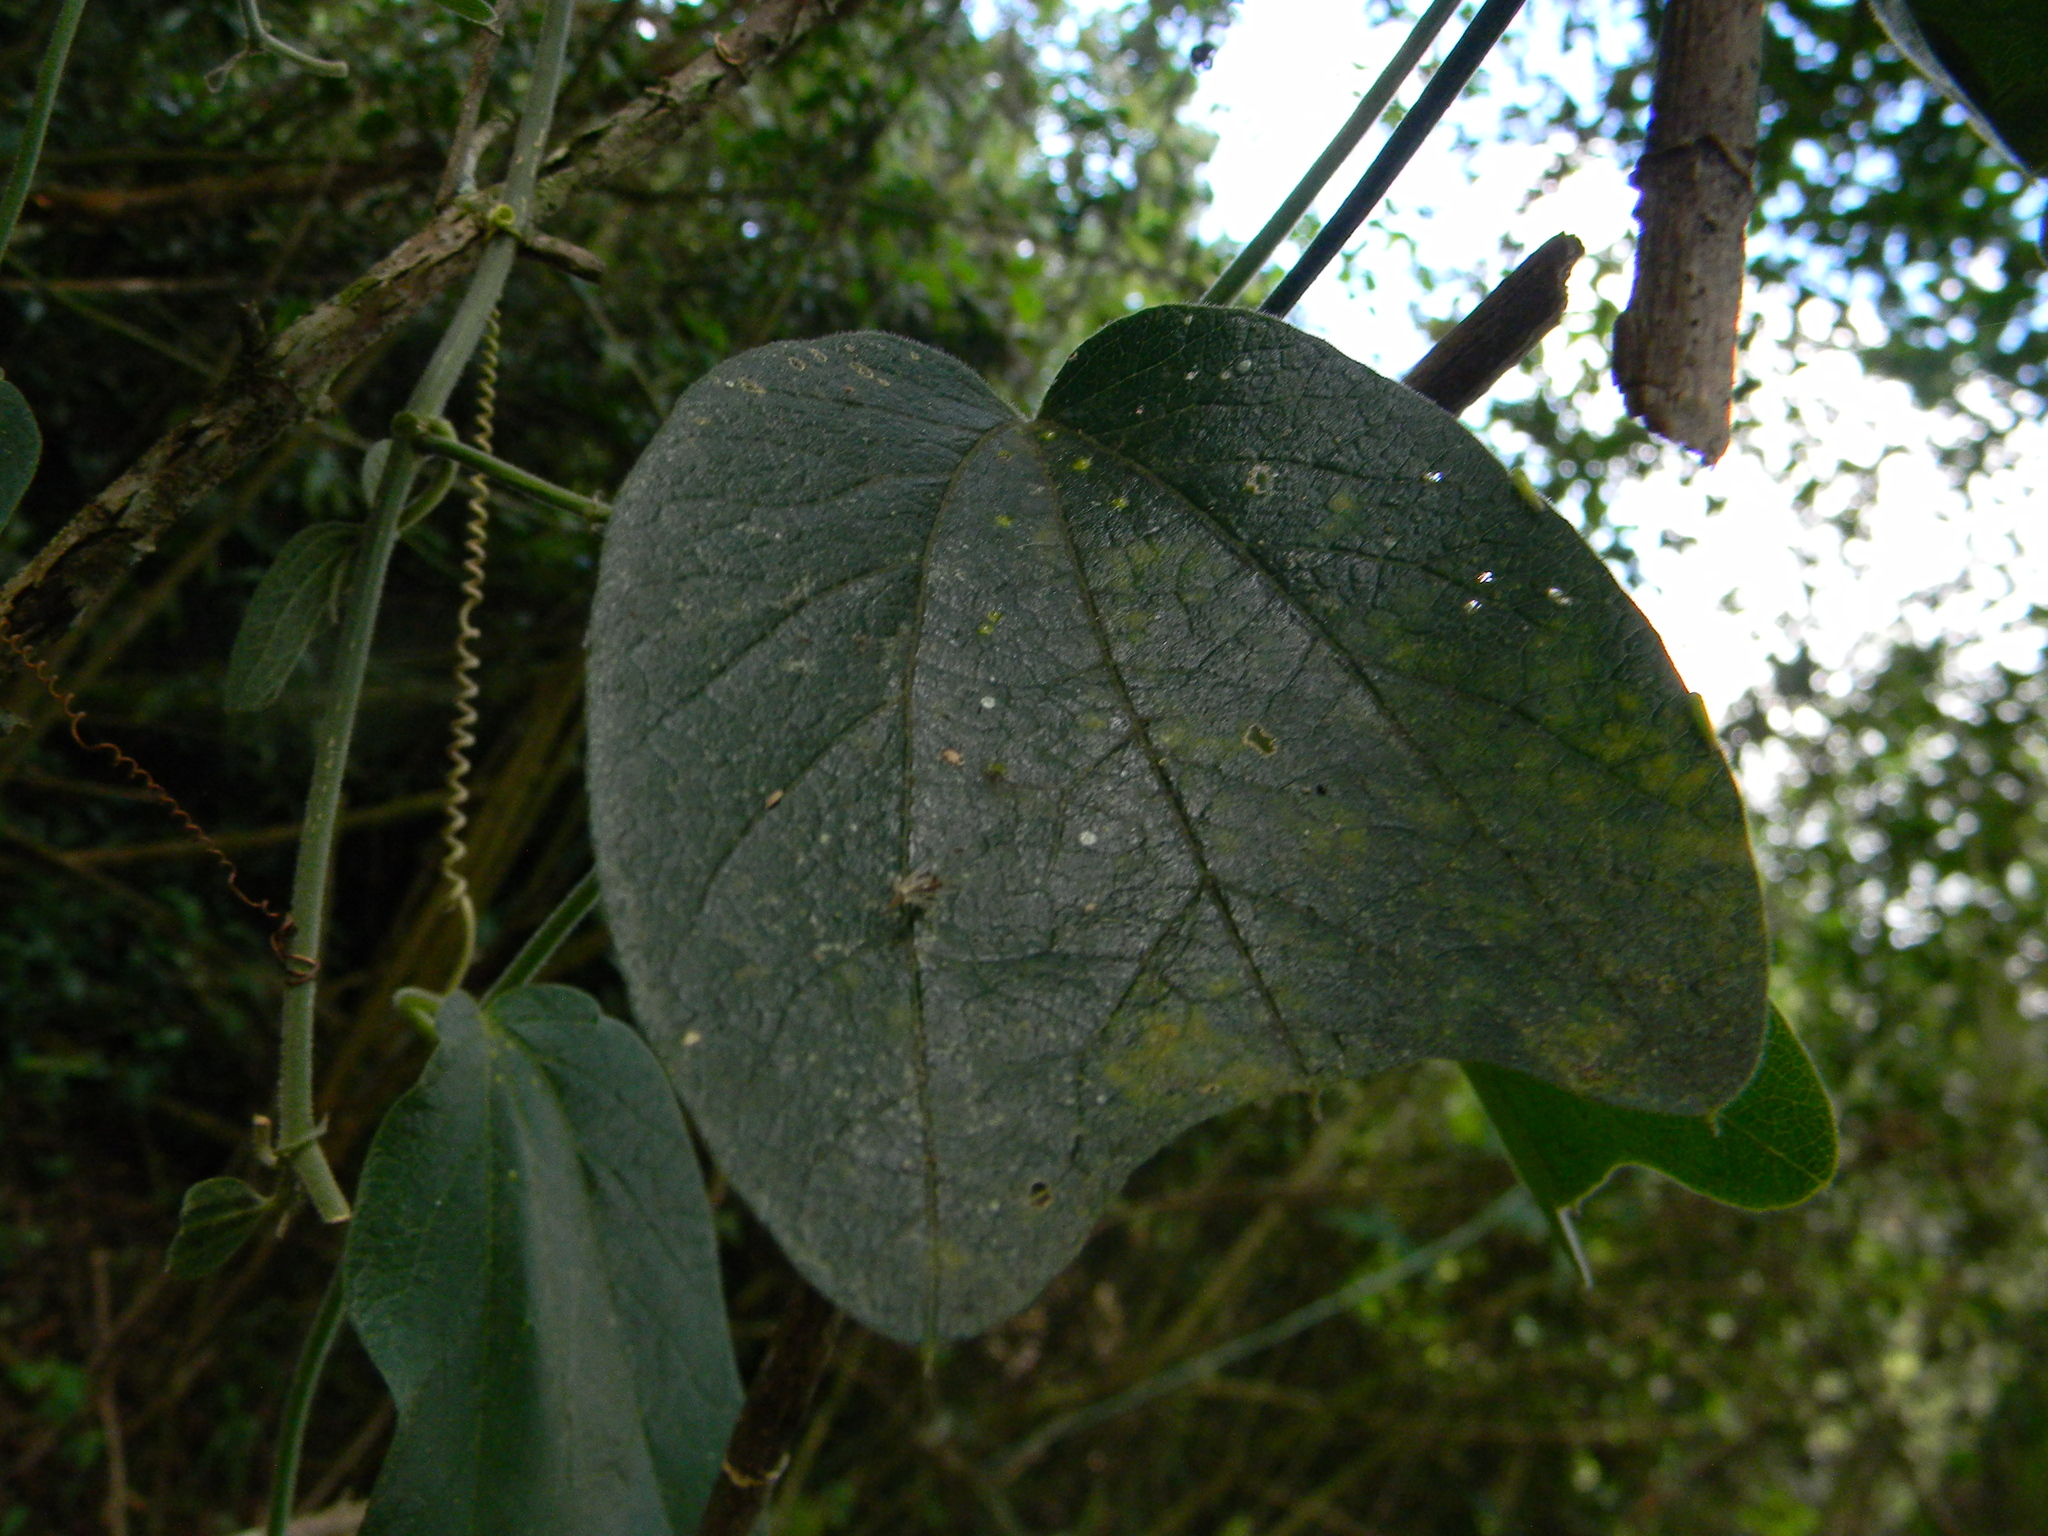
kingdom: Plantae
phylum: Tracheophyta
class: Magnoliopsida
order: Malpighiales
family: Passifloraceae
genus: Passiflora
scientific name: Passiflora bogotensis
